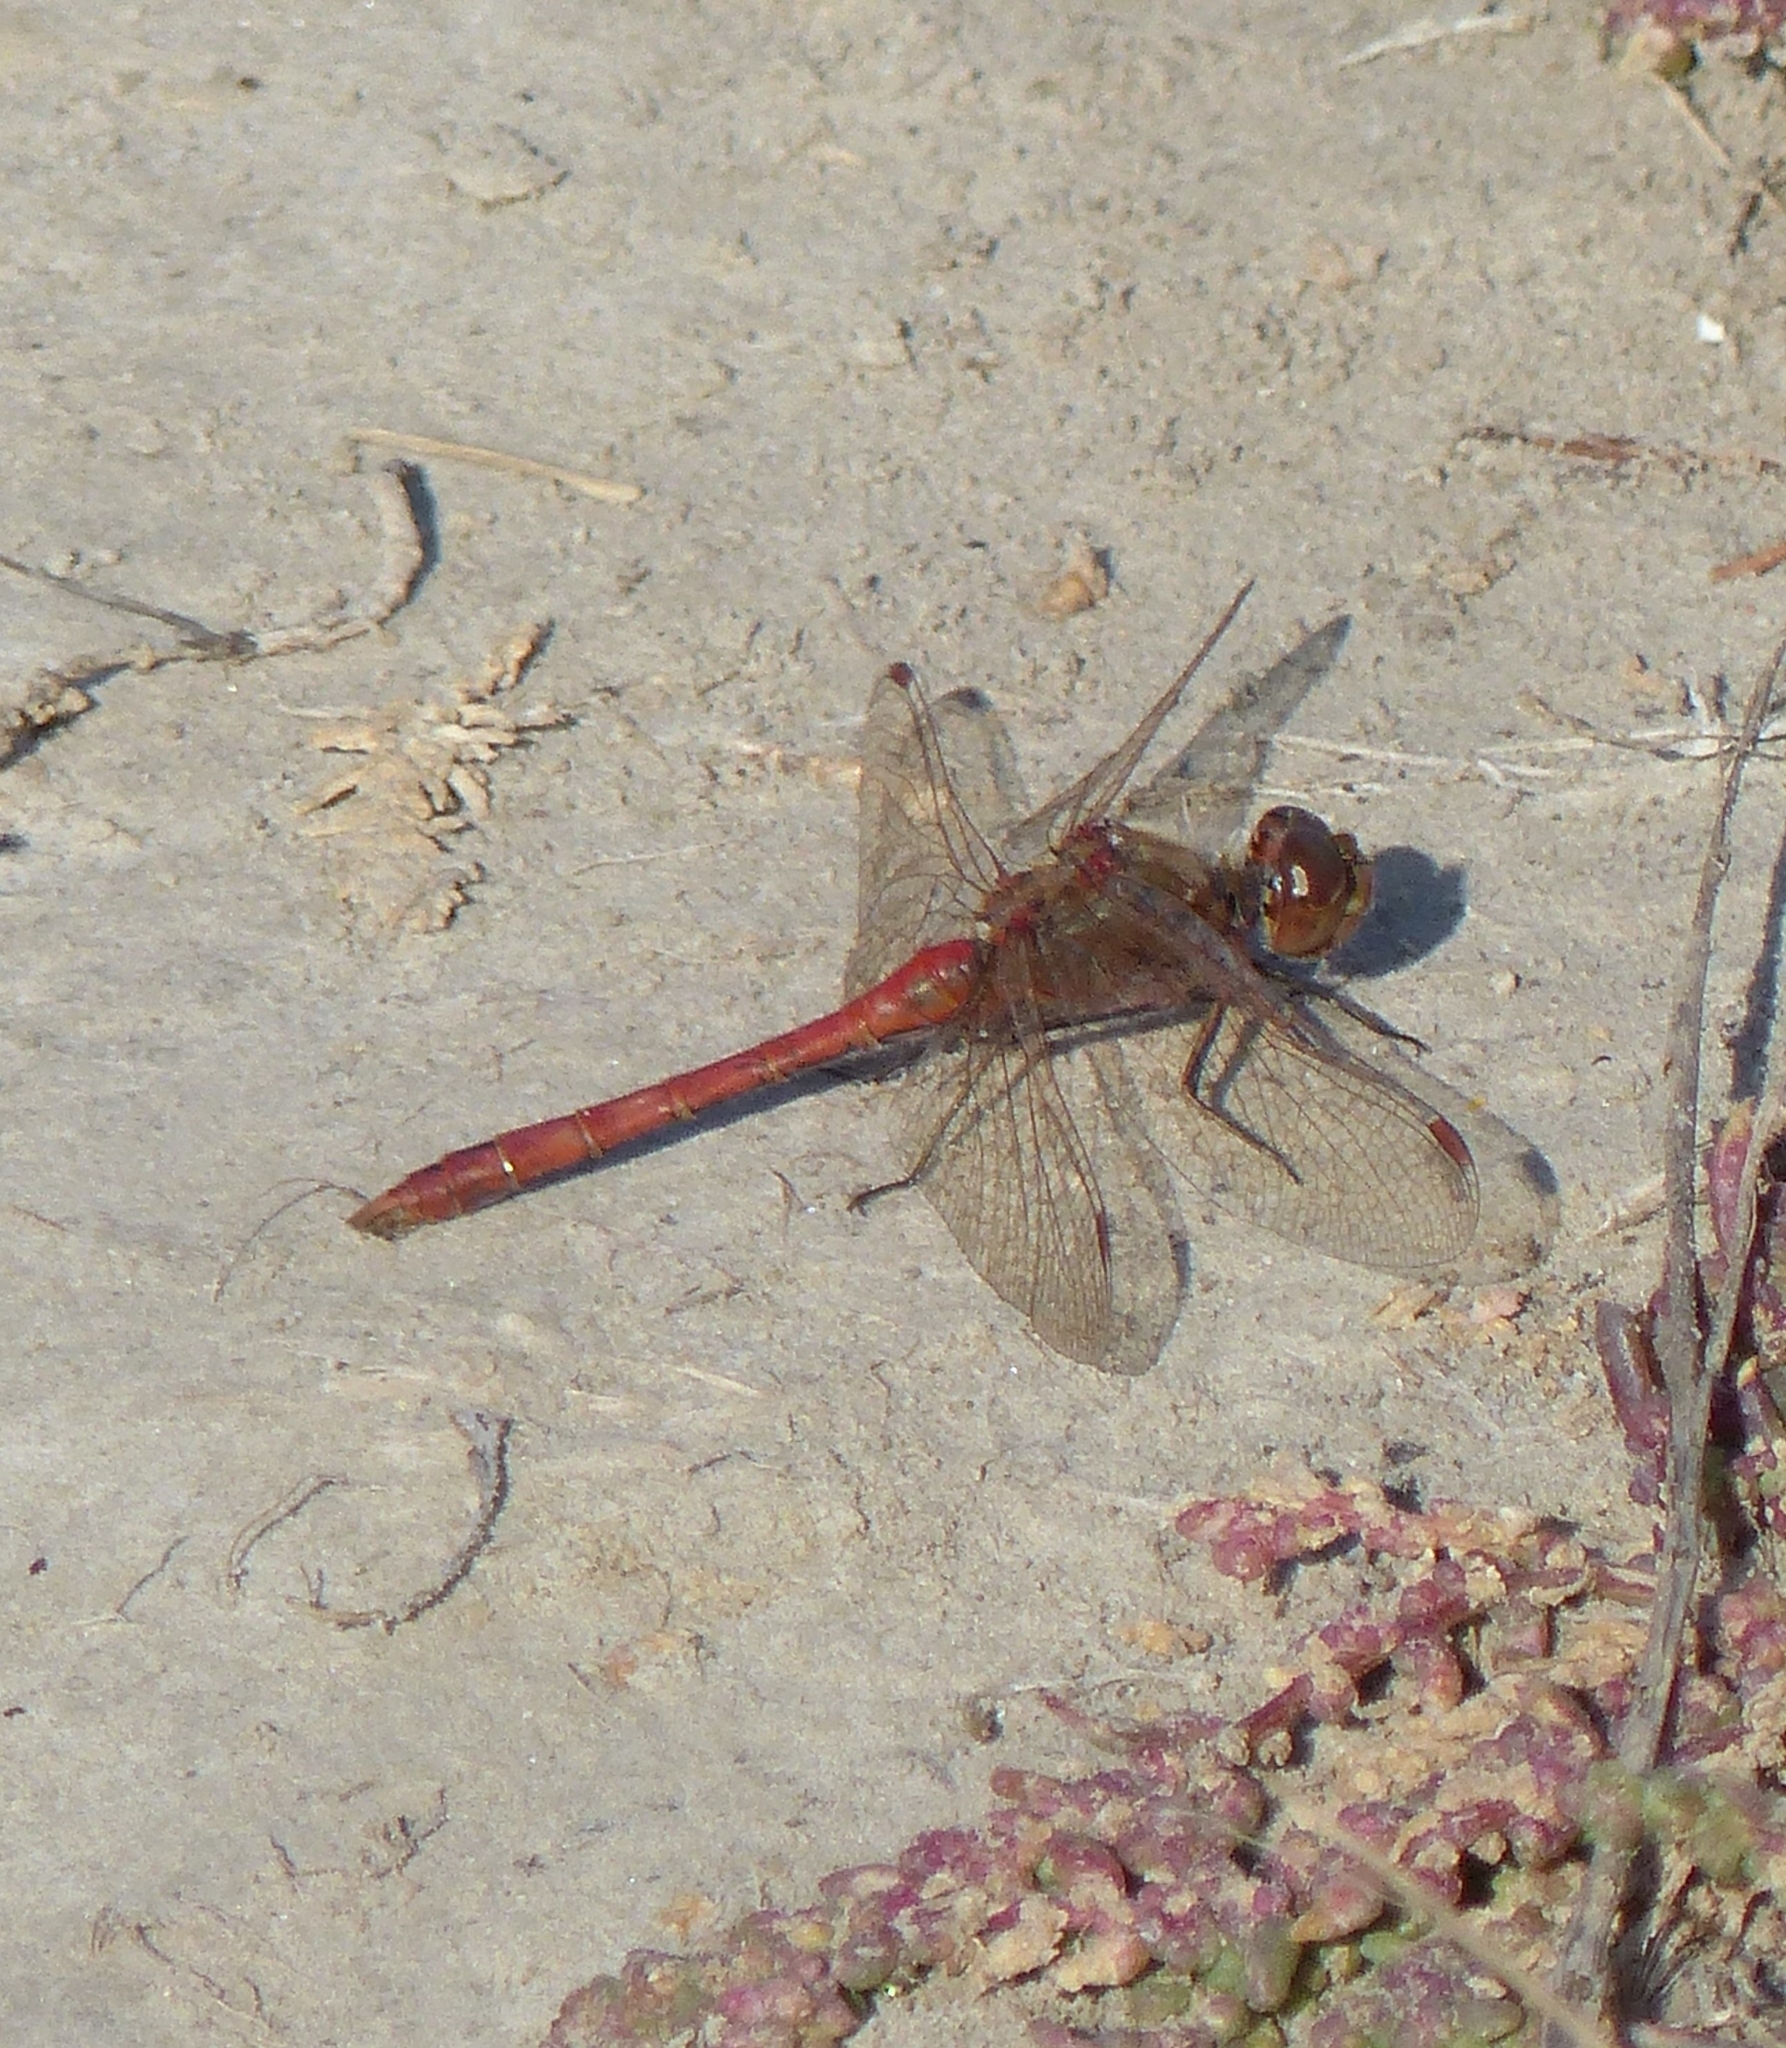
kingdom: Animalia
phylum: Arthropoda
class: Insecta
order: Odonata
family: Libellulidae
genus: Sympetrum
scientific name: Sympetrum meridionale
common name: Southern darter
